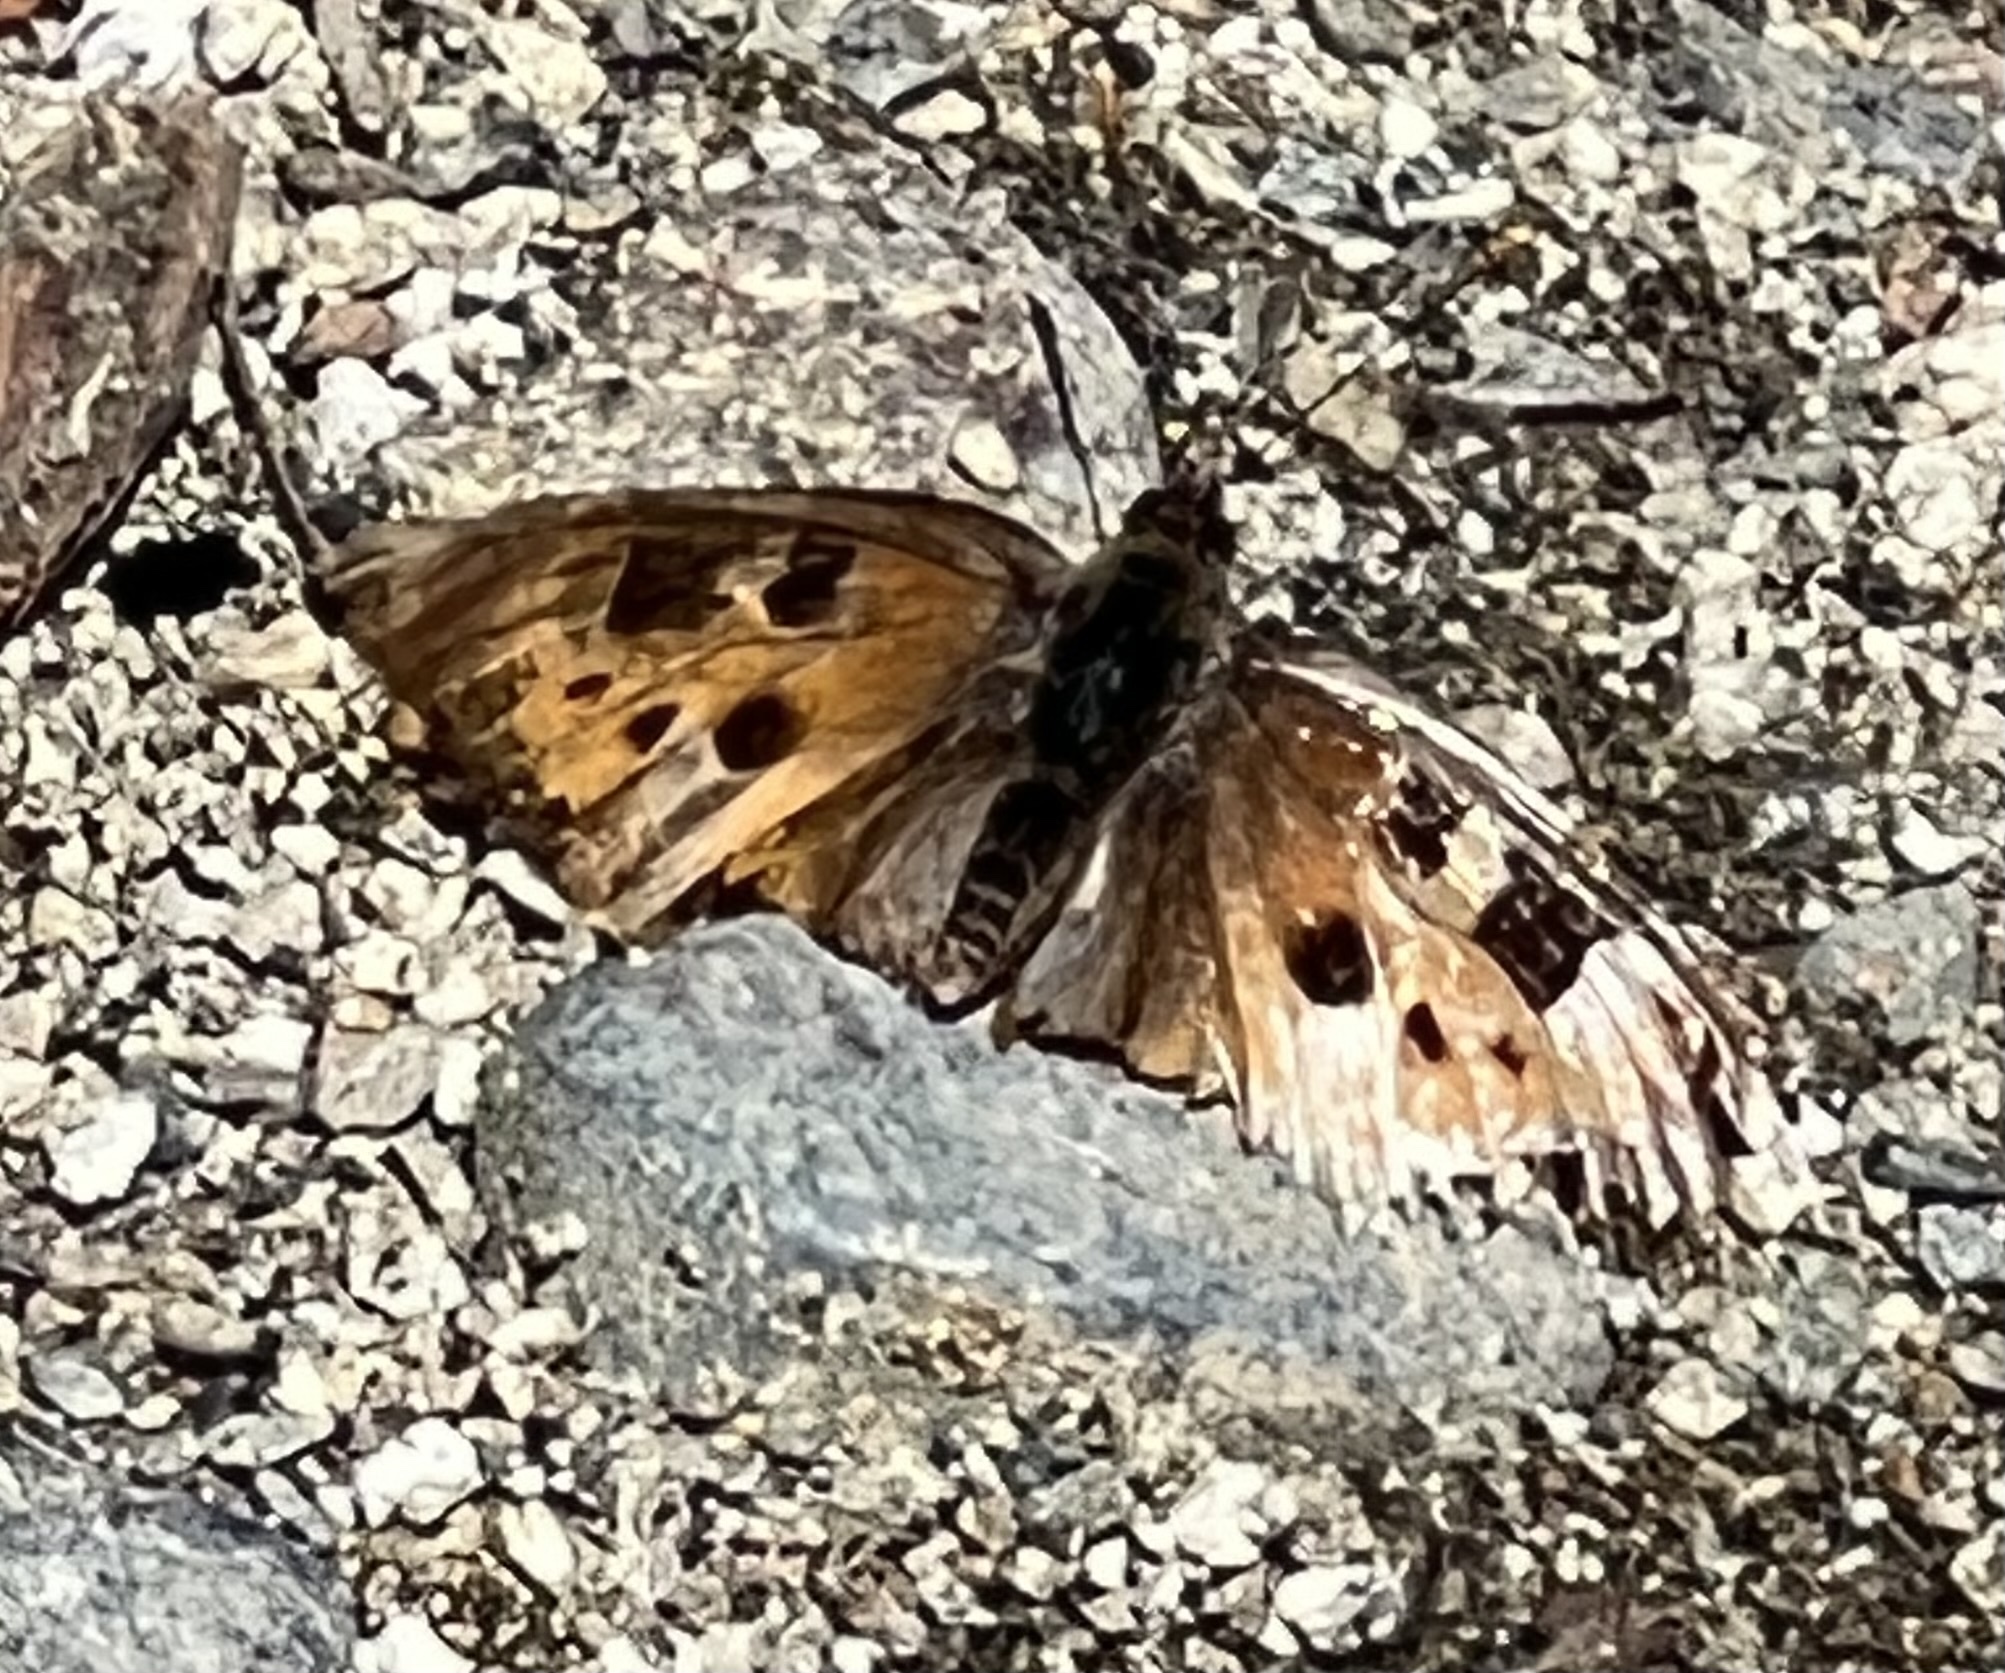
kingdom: Animalia
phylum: Arthropoda
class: Insecta
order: Lepidoptera
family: Nymphalidae
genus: Nymphalis
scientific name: Nymphalis californica
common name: California tortoiseshell
